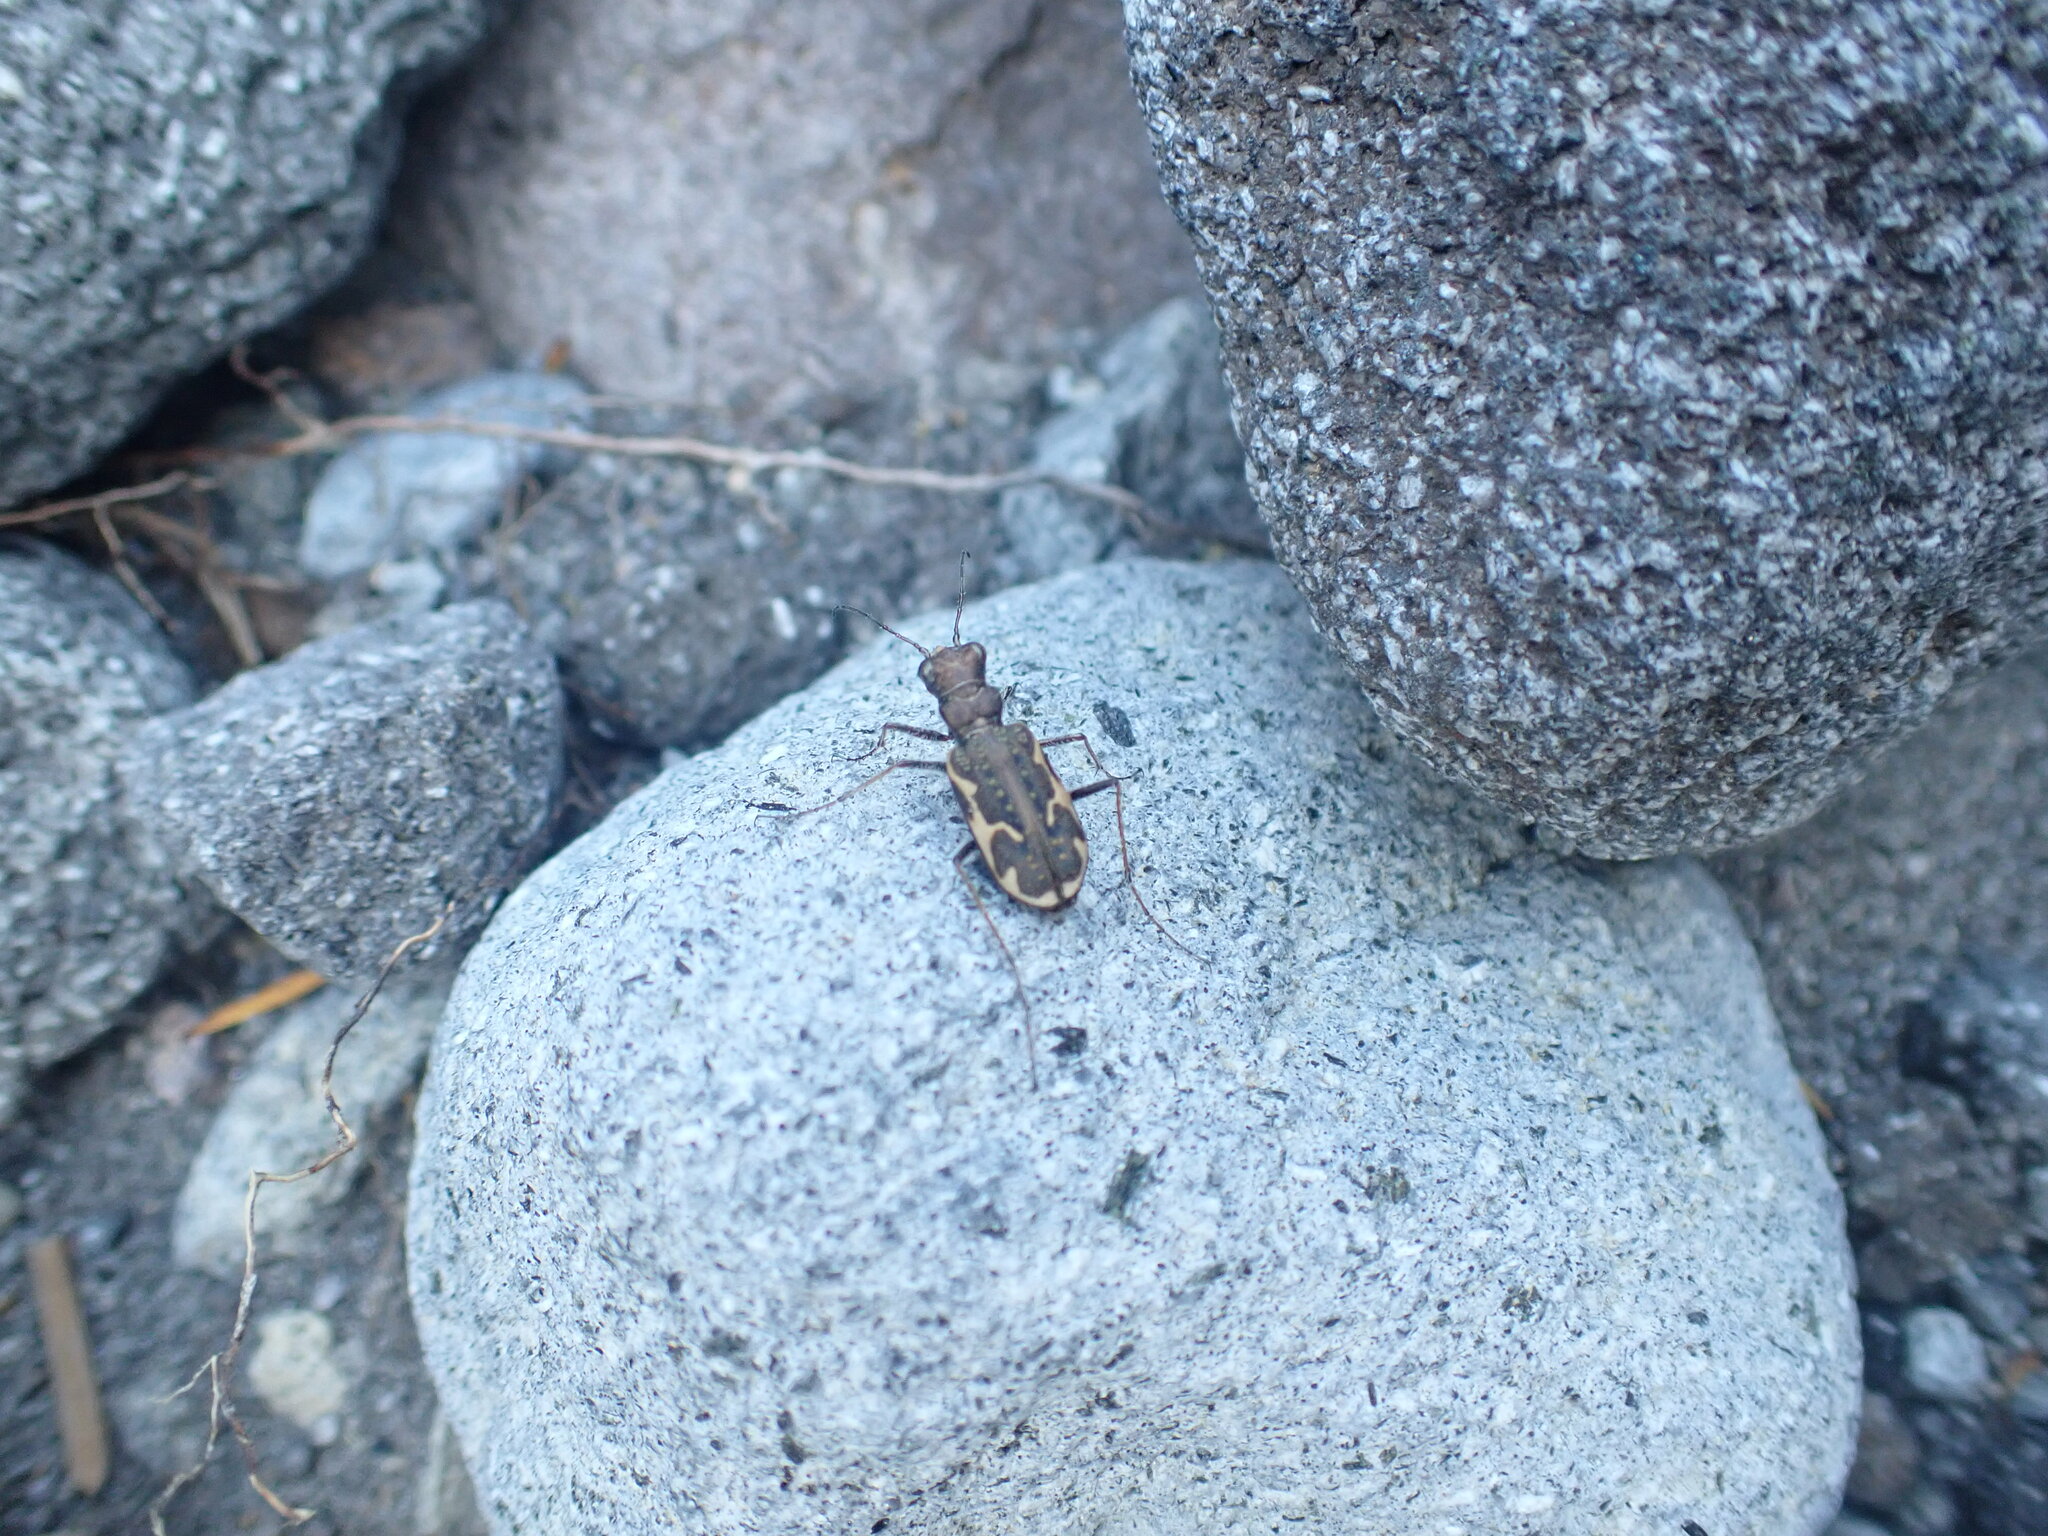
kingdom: Animalia
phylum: Arthropoda
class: Insecta
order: Coleoptera
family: Carabidae
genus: Neocicindela
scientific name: Neocicindela tuberculata
